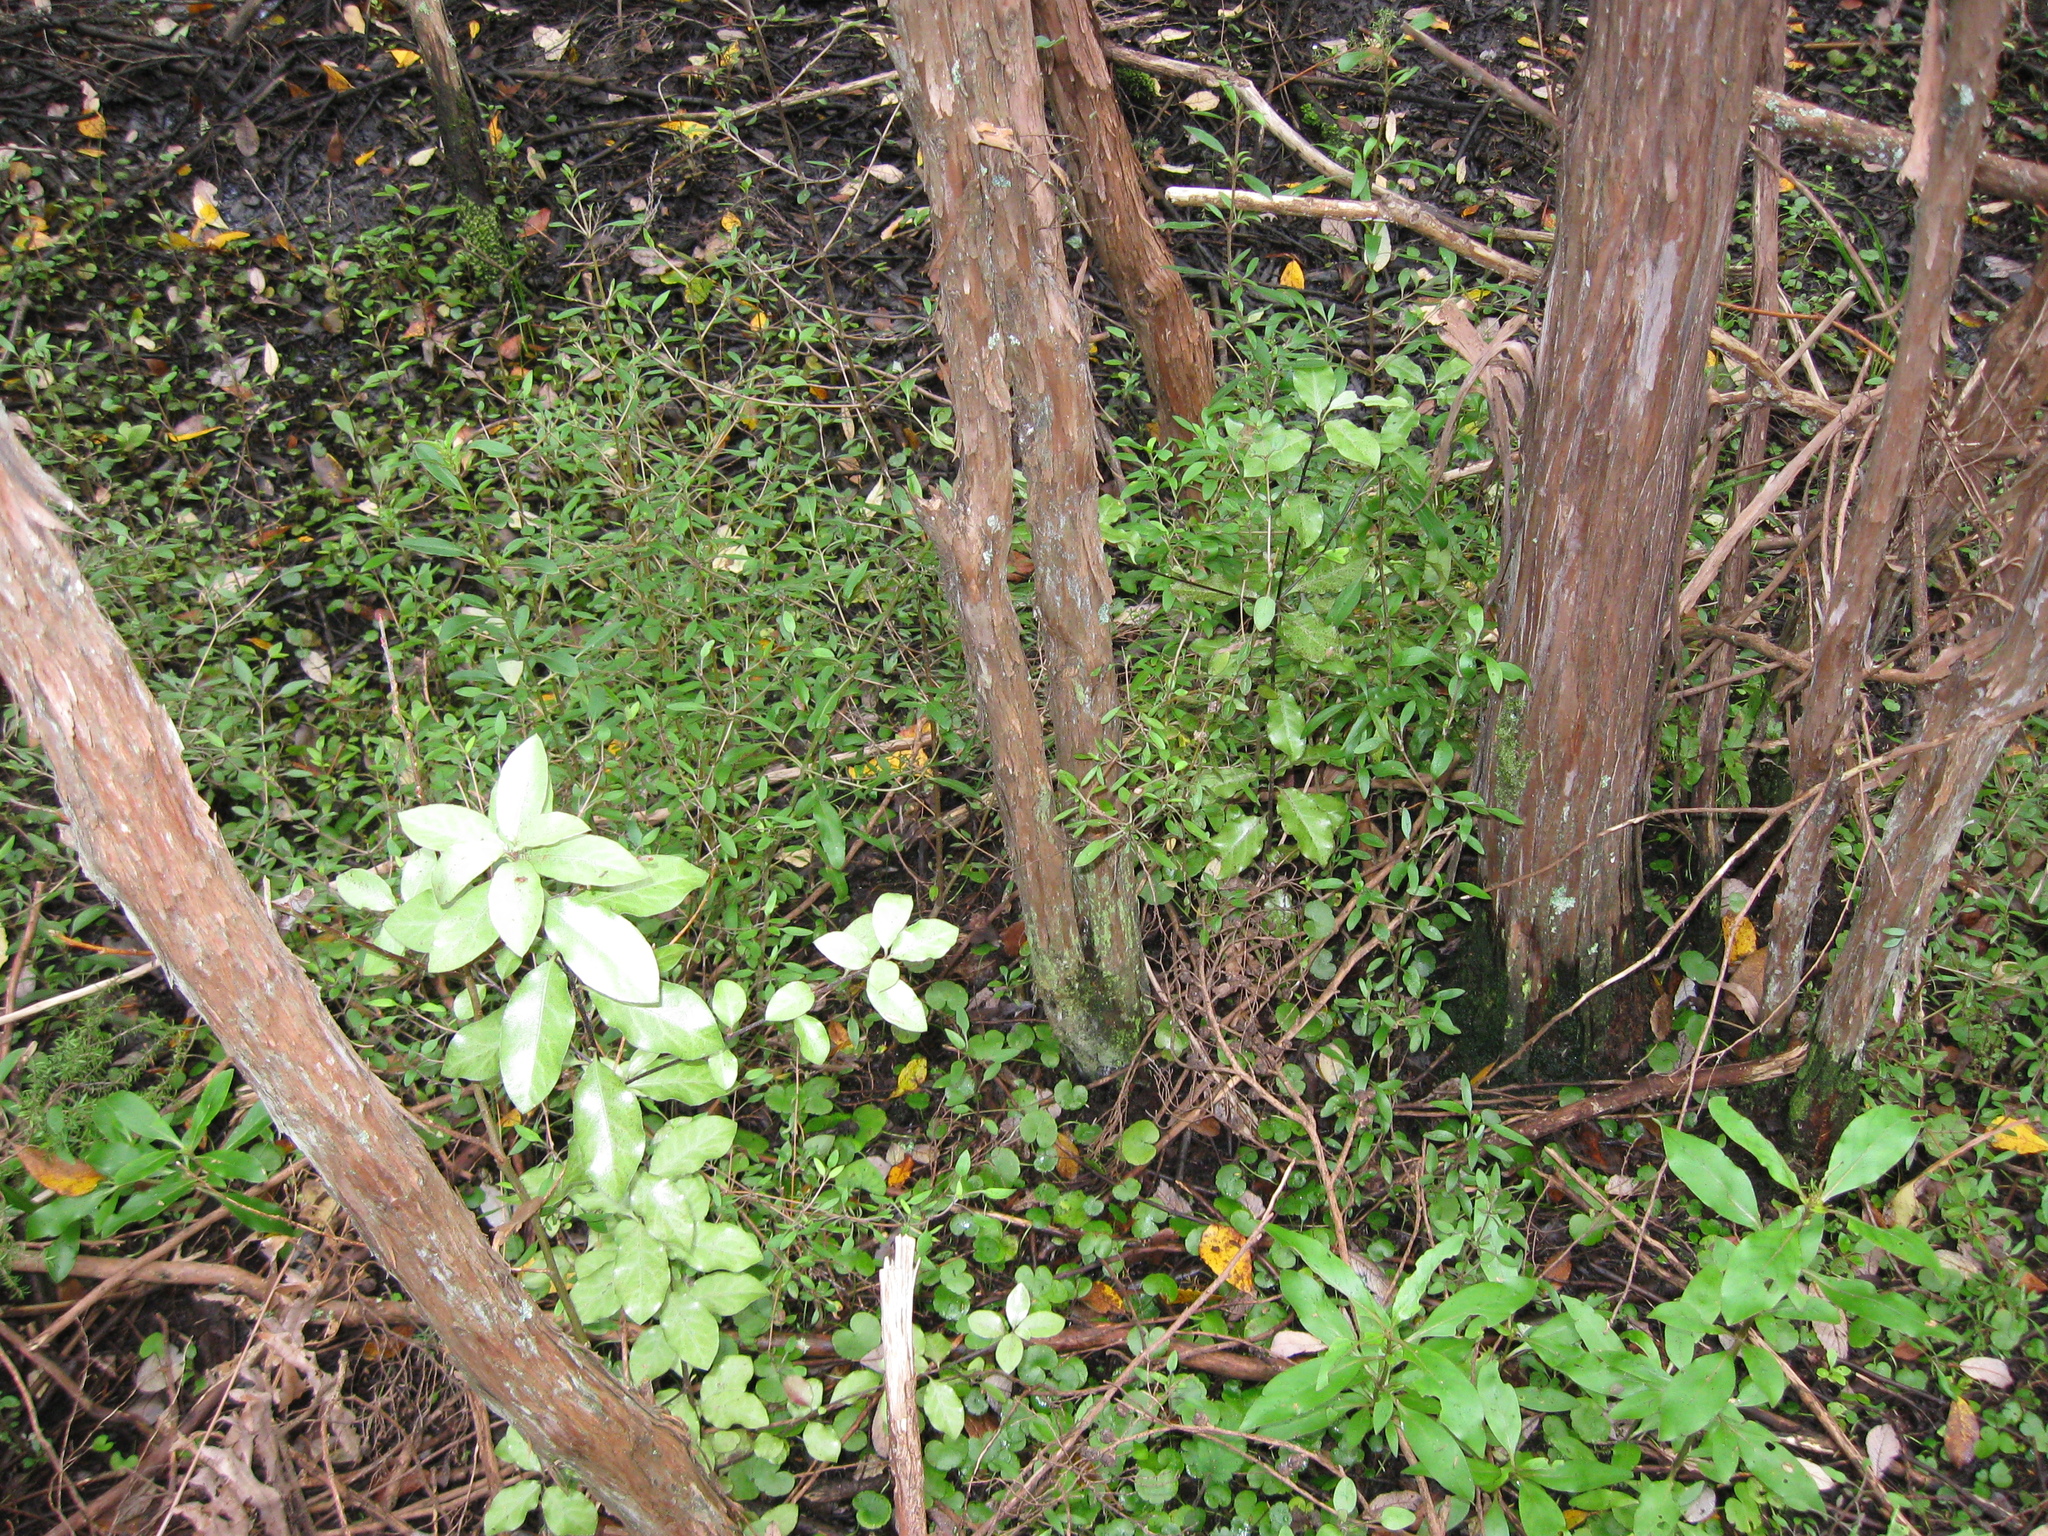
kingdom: Plantae
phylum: Tracheophyta
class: Magnoliopsida
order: Apiales
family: Pittosporaceae
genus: Pittosporum
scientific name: Pittosporum tenuifolium
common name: Kohuhu
